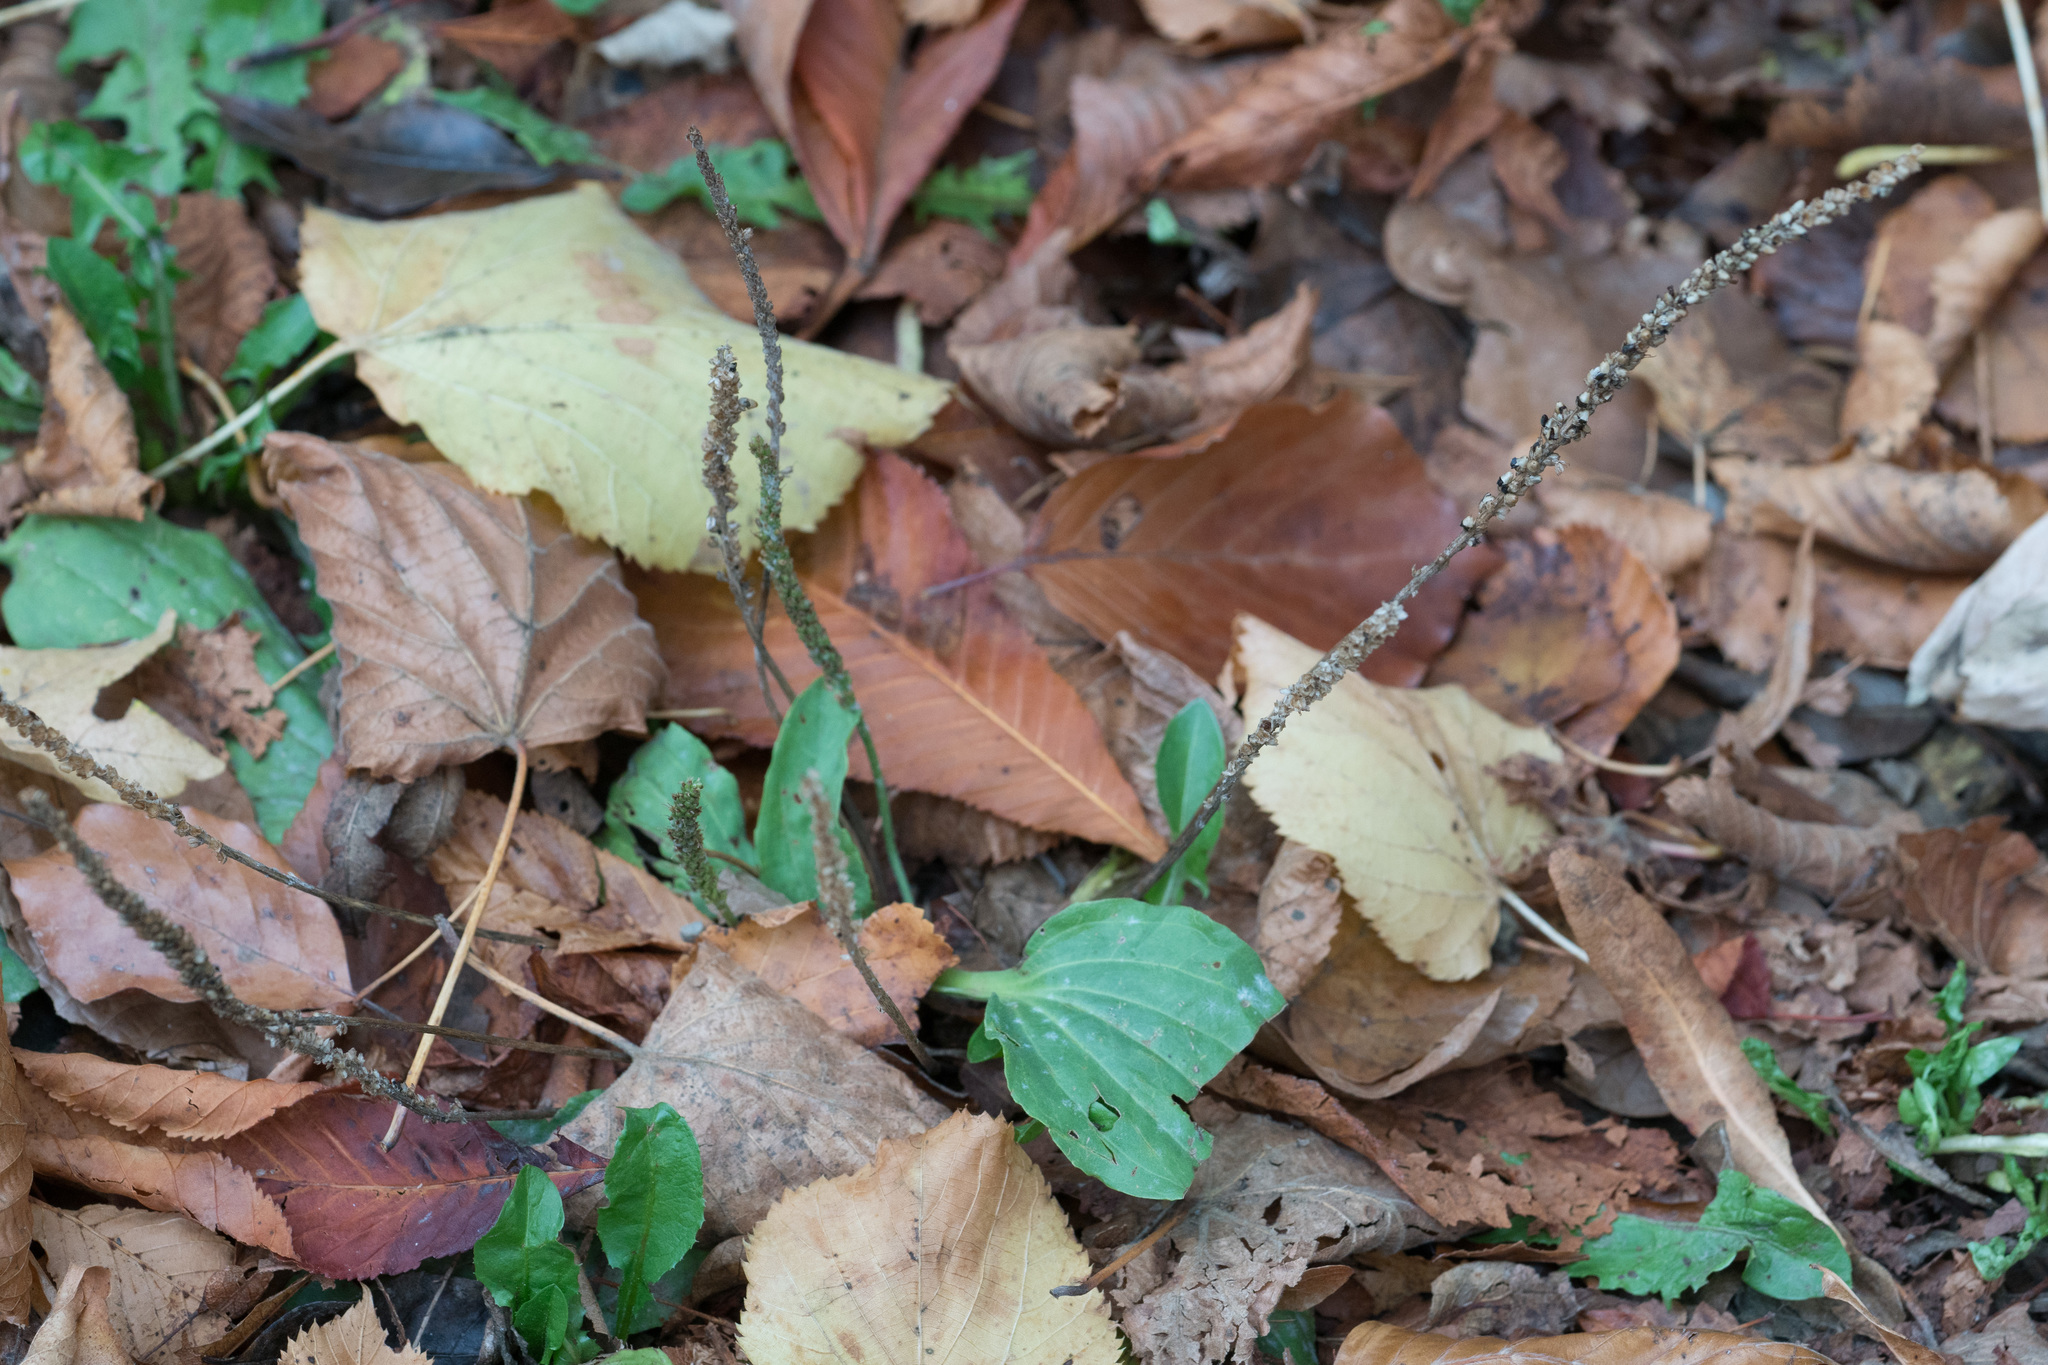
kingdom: Plantae
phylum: Tracheophyta
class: Magnoliopsida
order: Lamiales
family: Plantaginaceae
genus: Plantago
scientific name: Plantago major
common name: Common plantain
